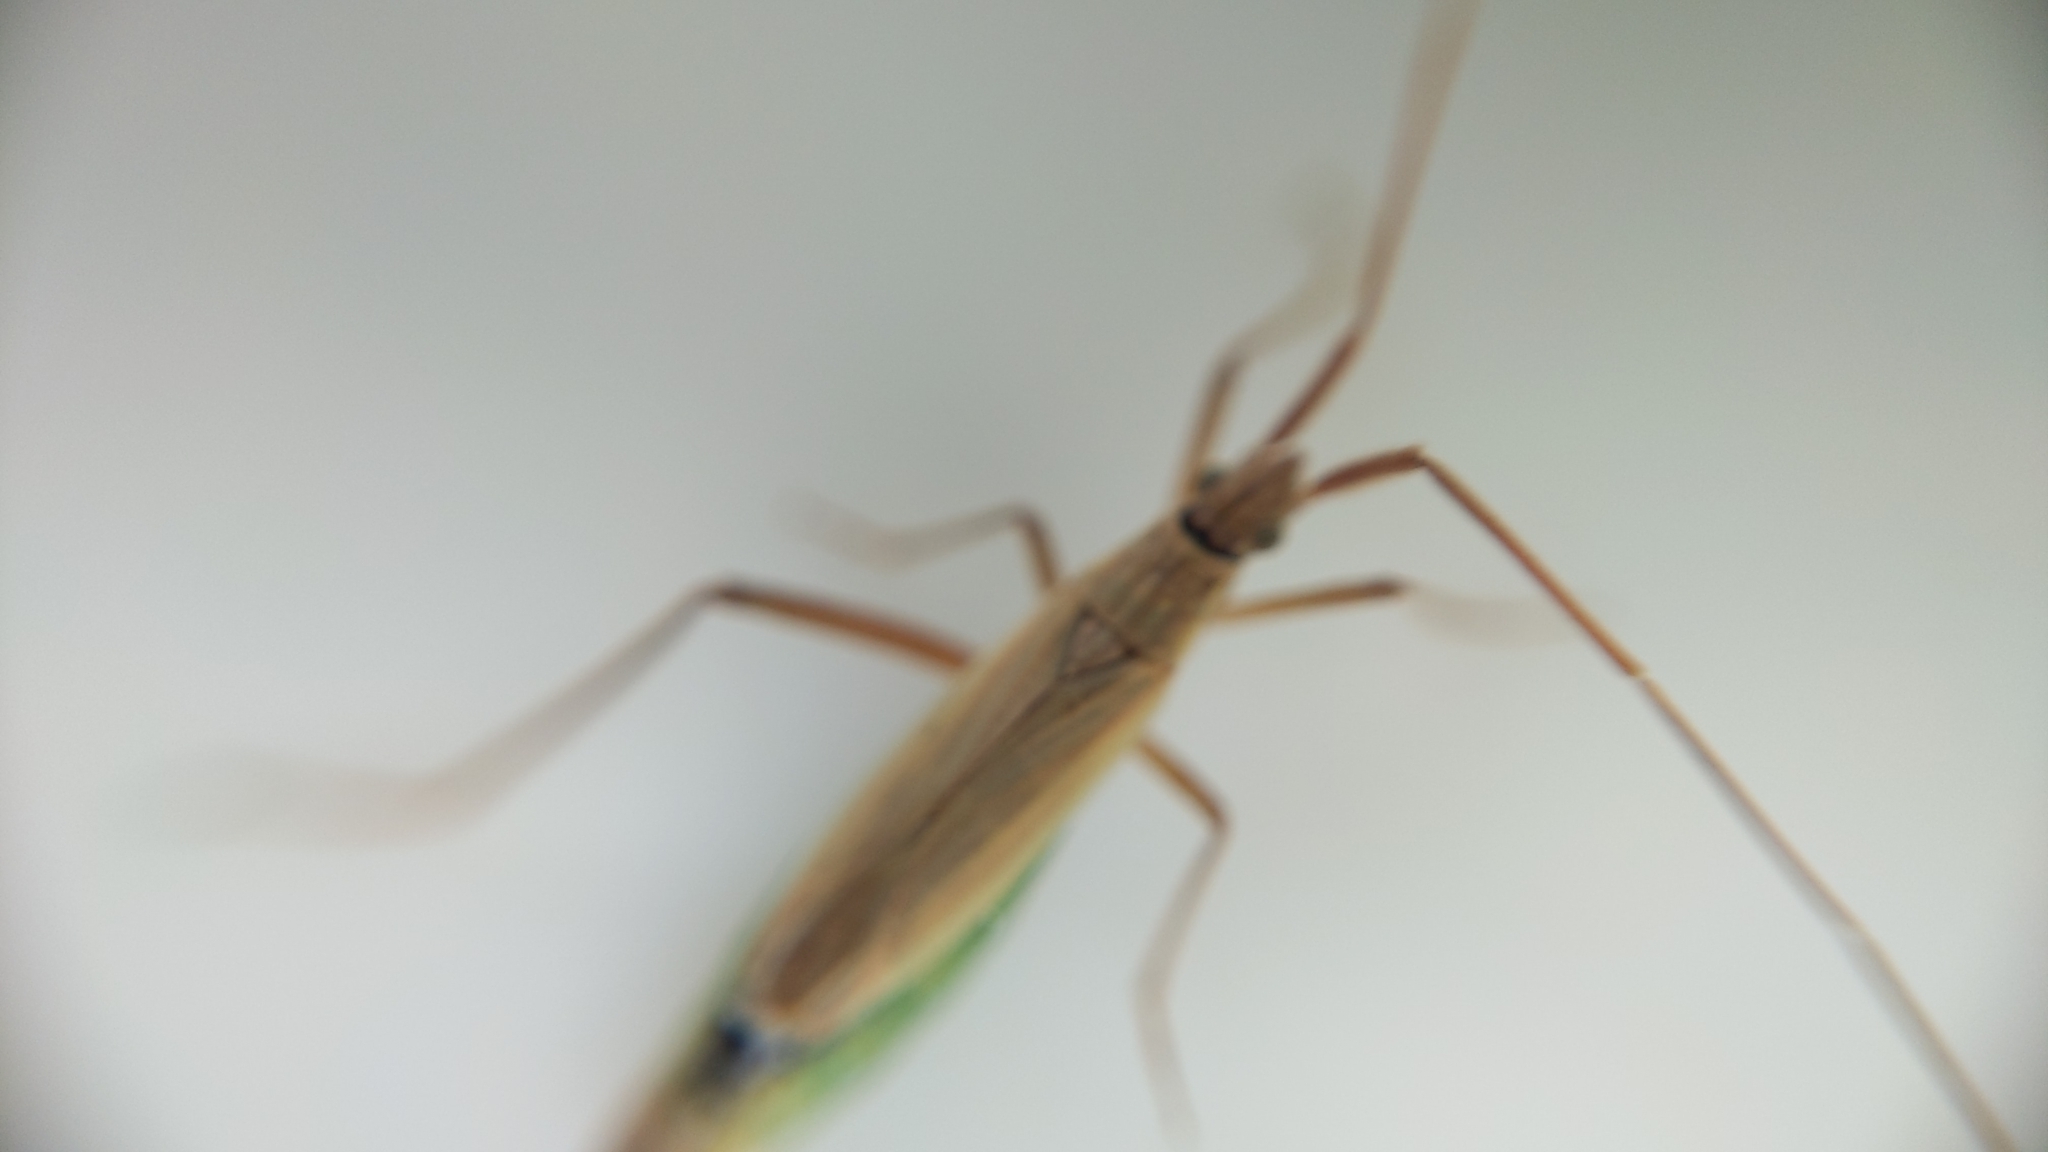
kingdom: Animalia
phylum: Arthropoda
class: Insecta
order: Hemiptera
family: Miridae
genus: Notostira
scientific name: Notostira elongata
